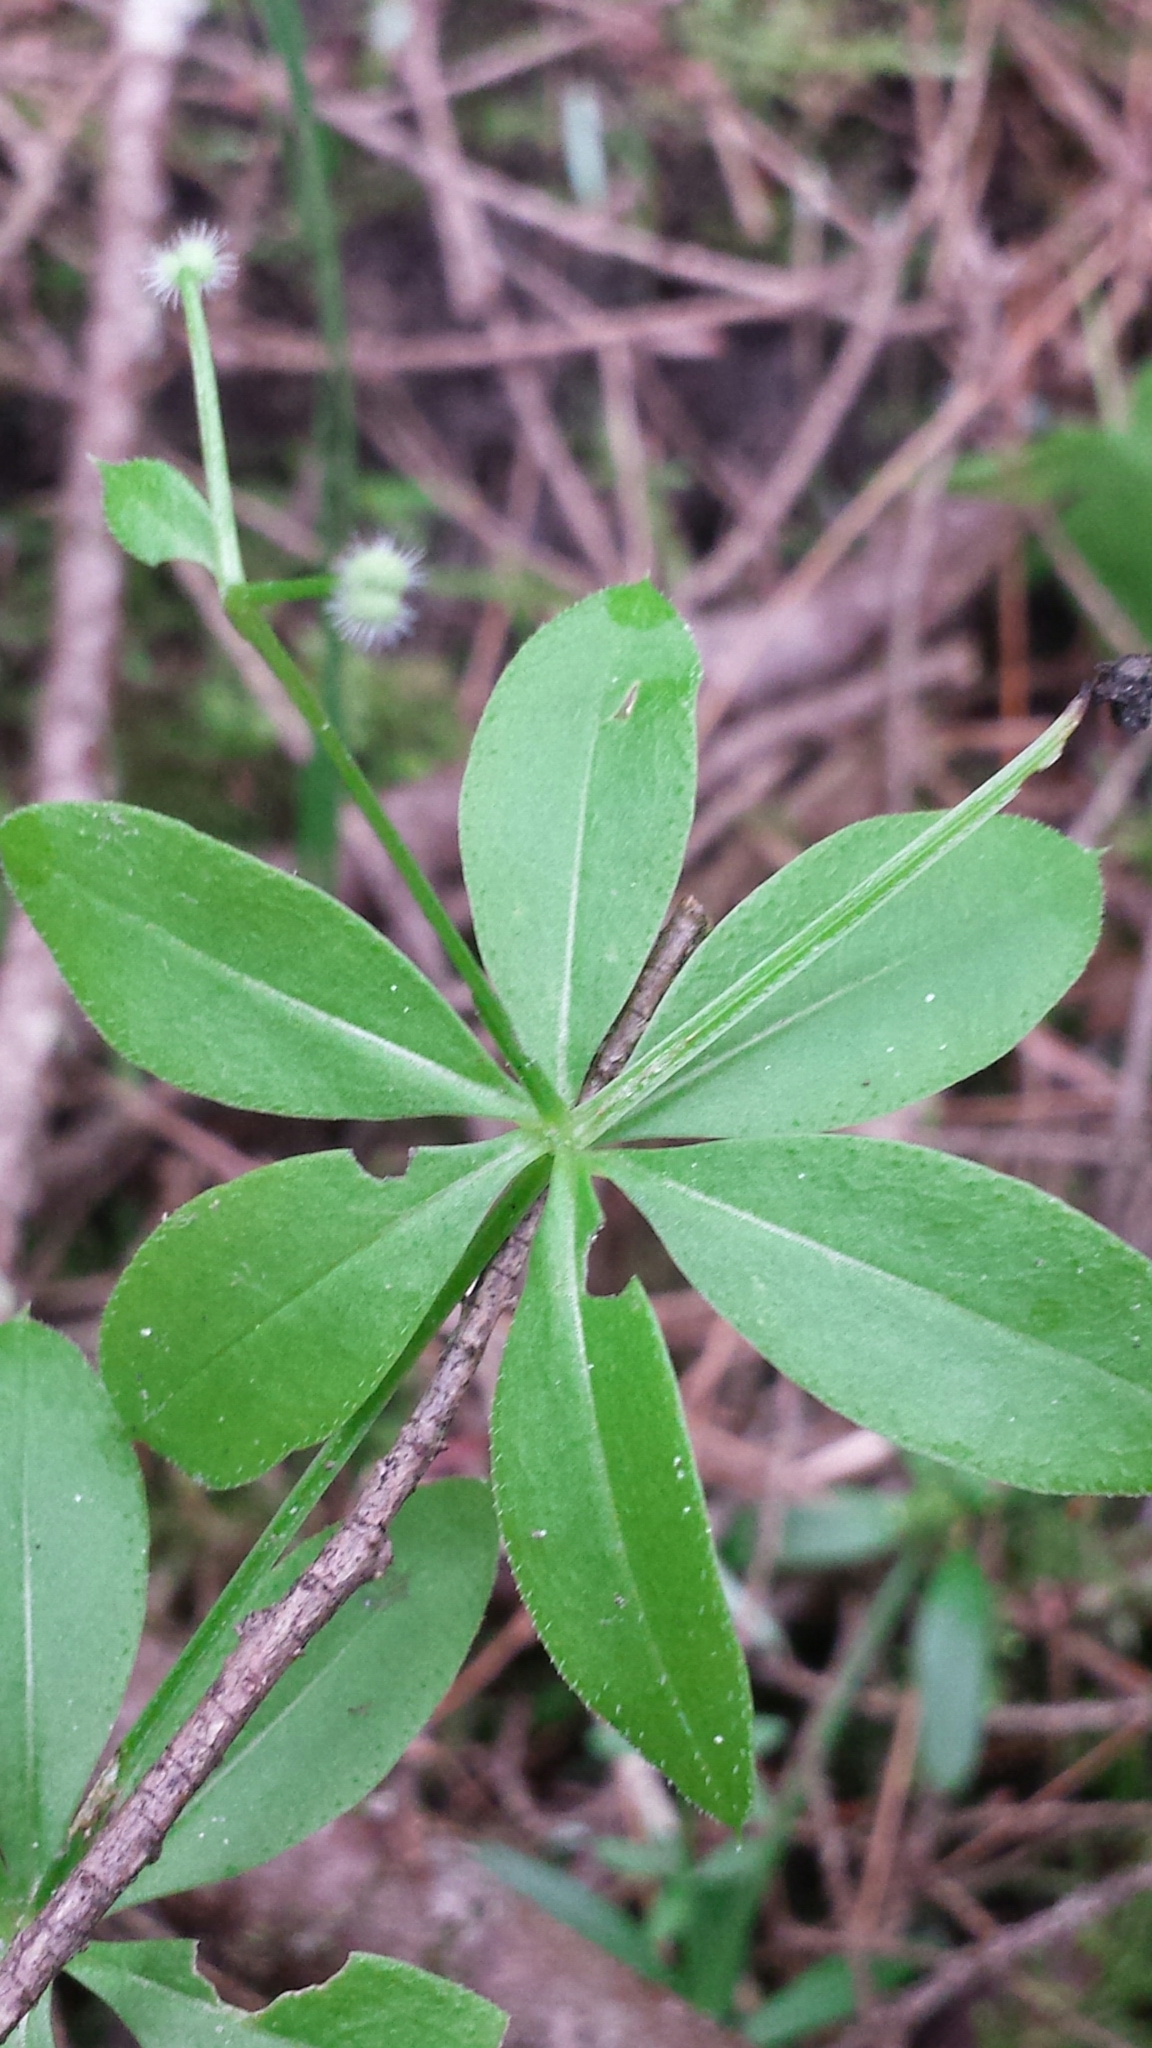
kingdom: Plantae
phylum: Tracheophyta
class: Magnoliopsida
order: Gentianales
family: Rubiaceae
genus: Galium
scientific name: Galium triflorum
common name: Fragrant bedstraw
